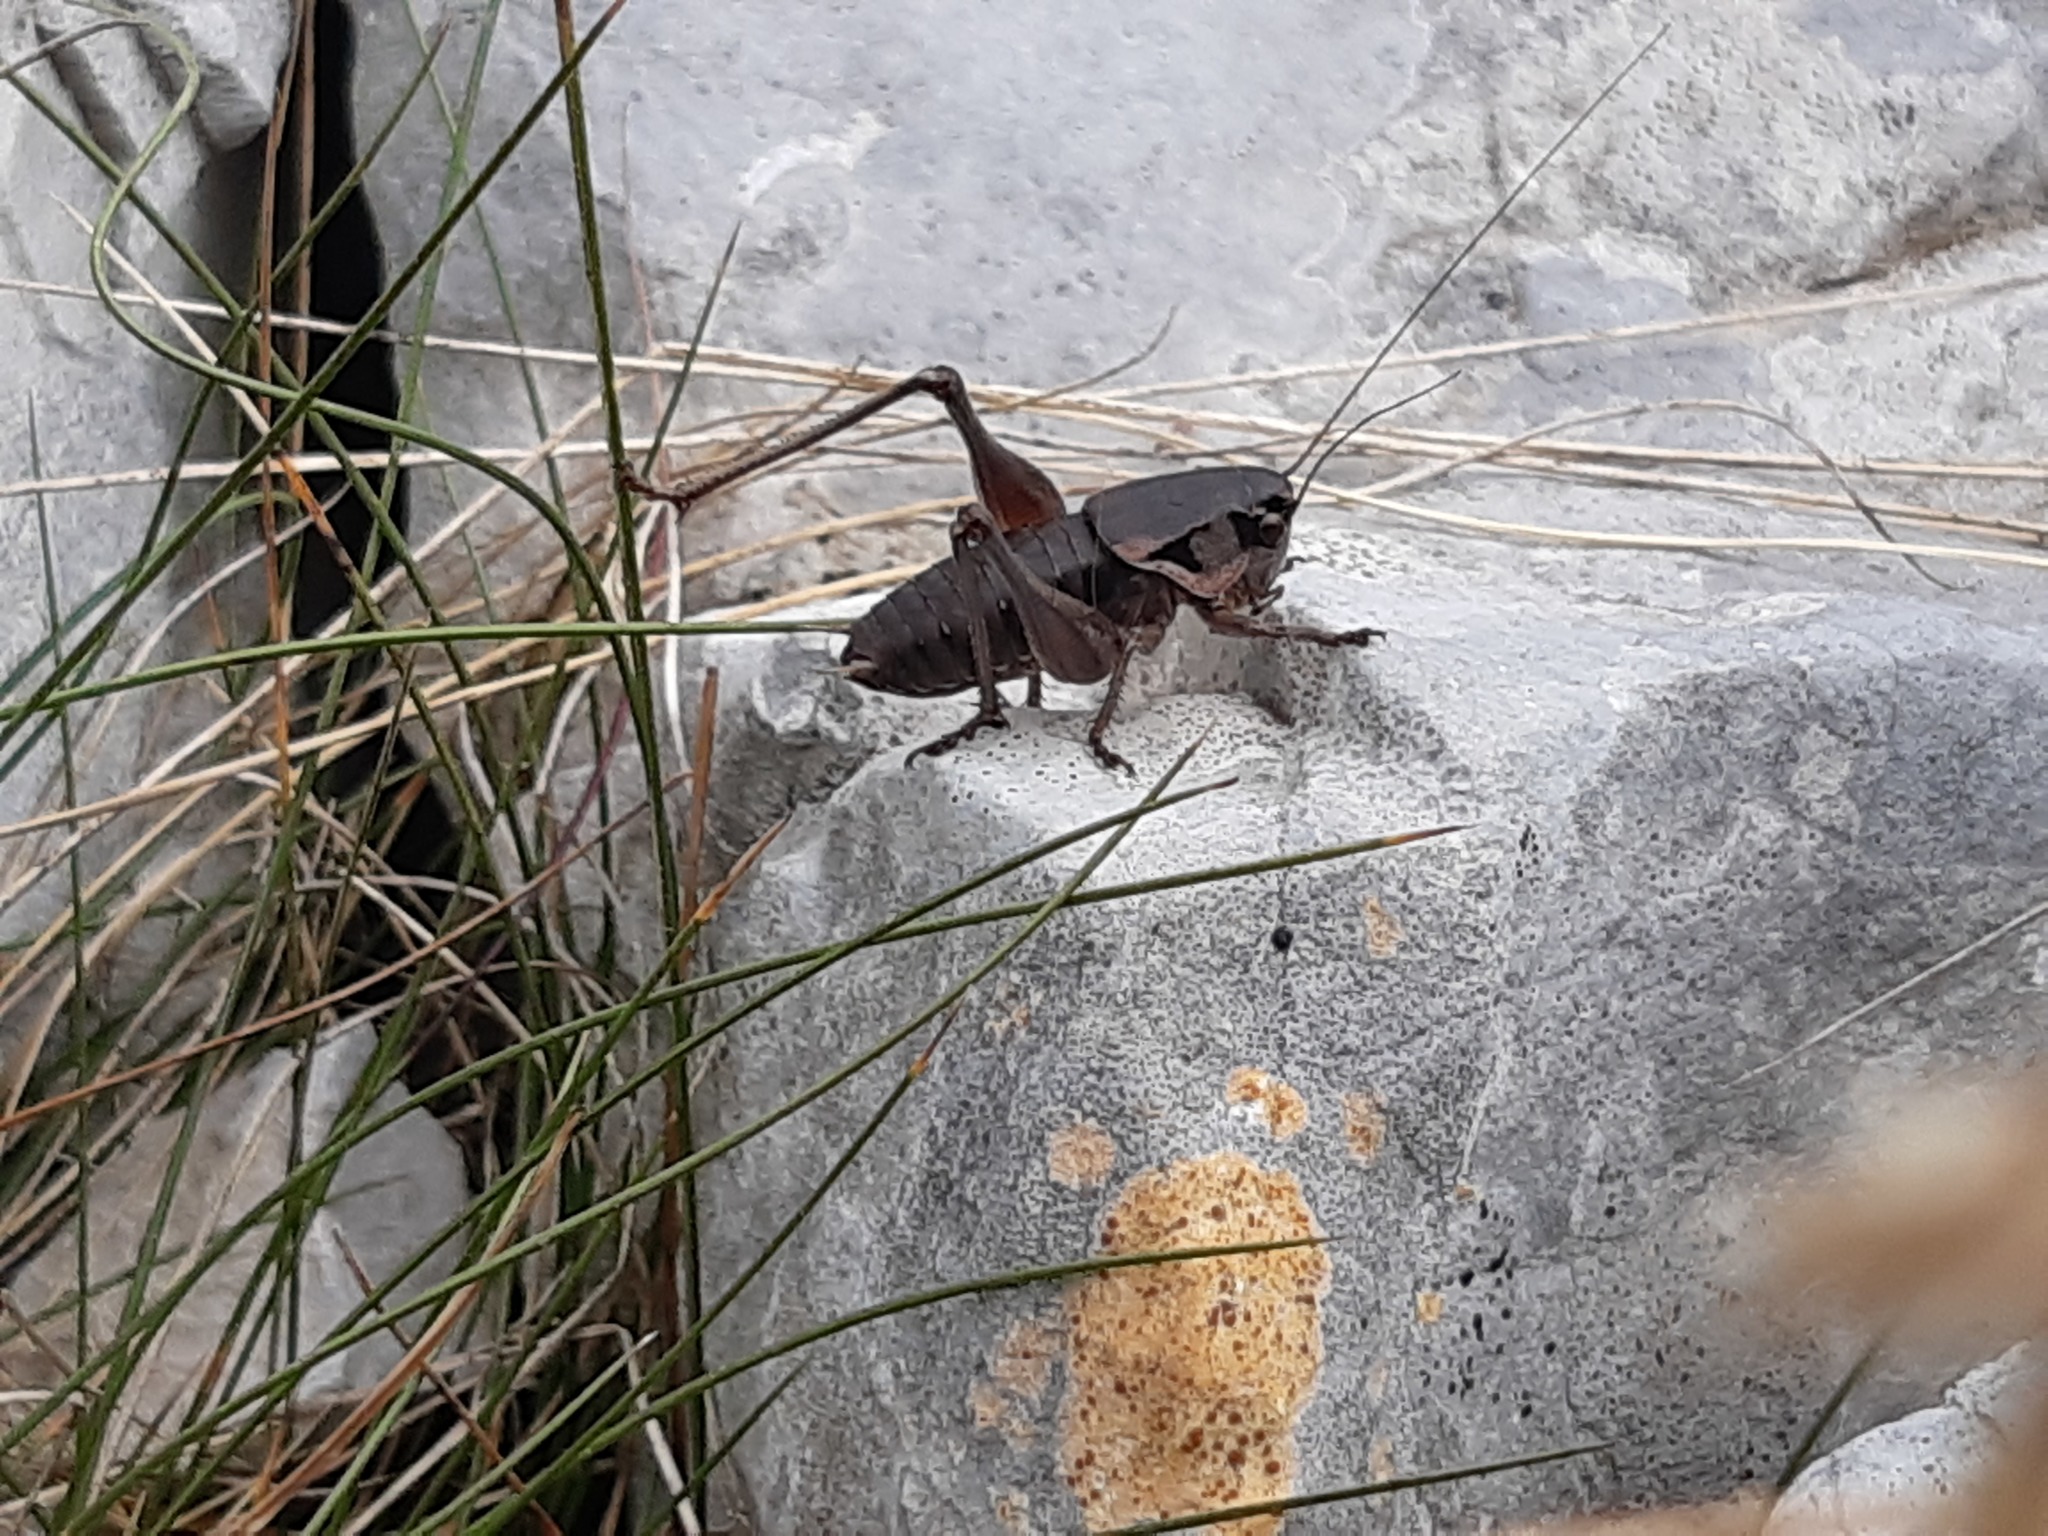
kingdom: Animalia
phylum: Arthropoda
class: Insecta
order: Orthoptera
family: Tettigoniidae
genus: Pholidoptera
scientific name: Pholidoptera dalmatica
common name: Dalmatian dark bush-cricket
